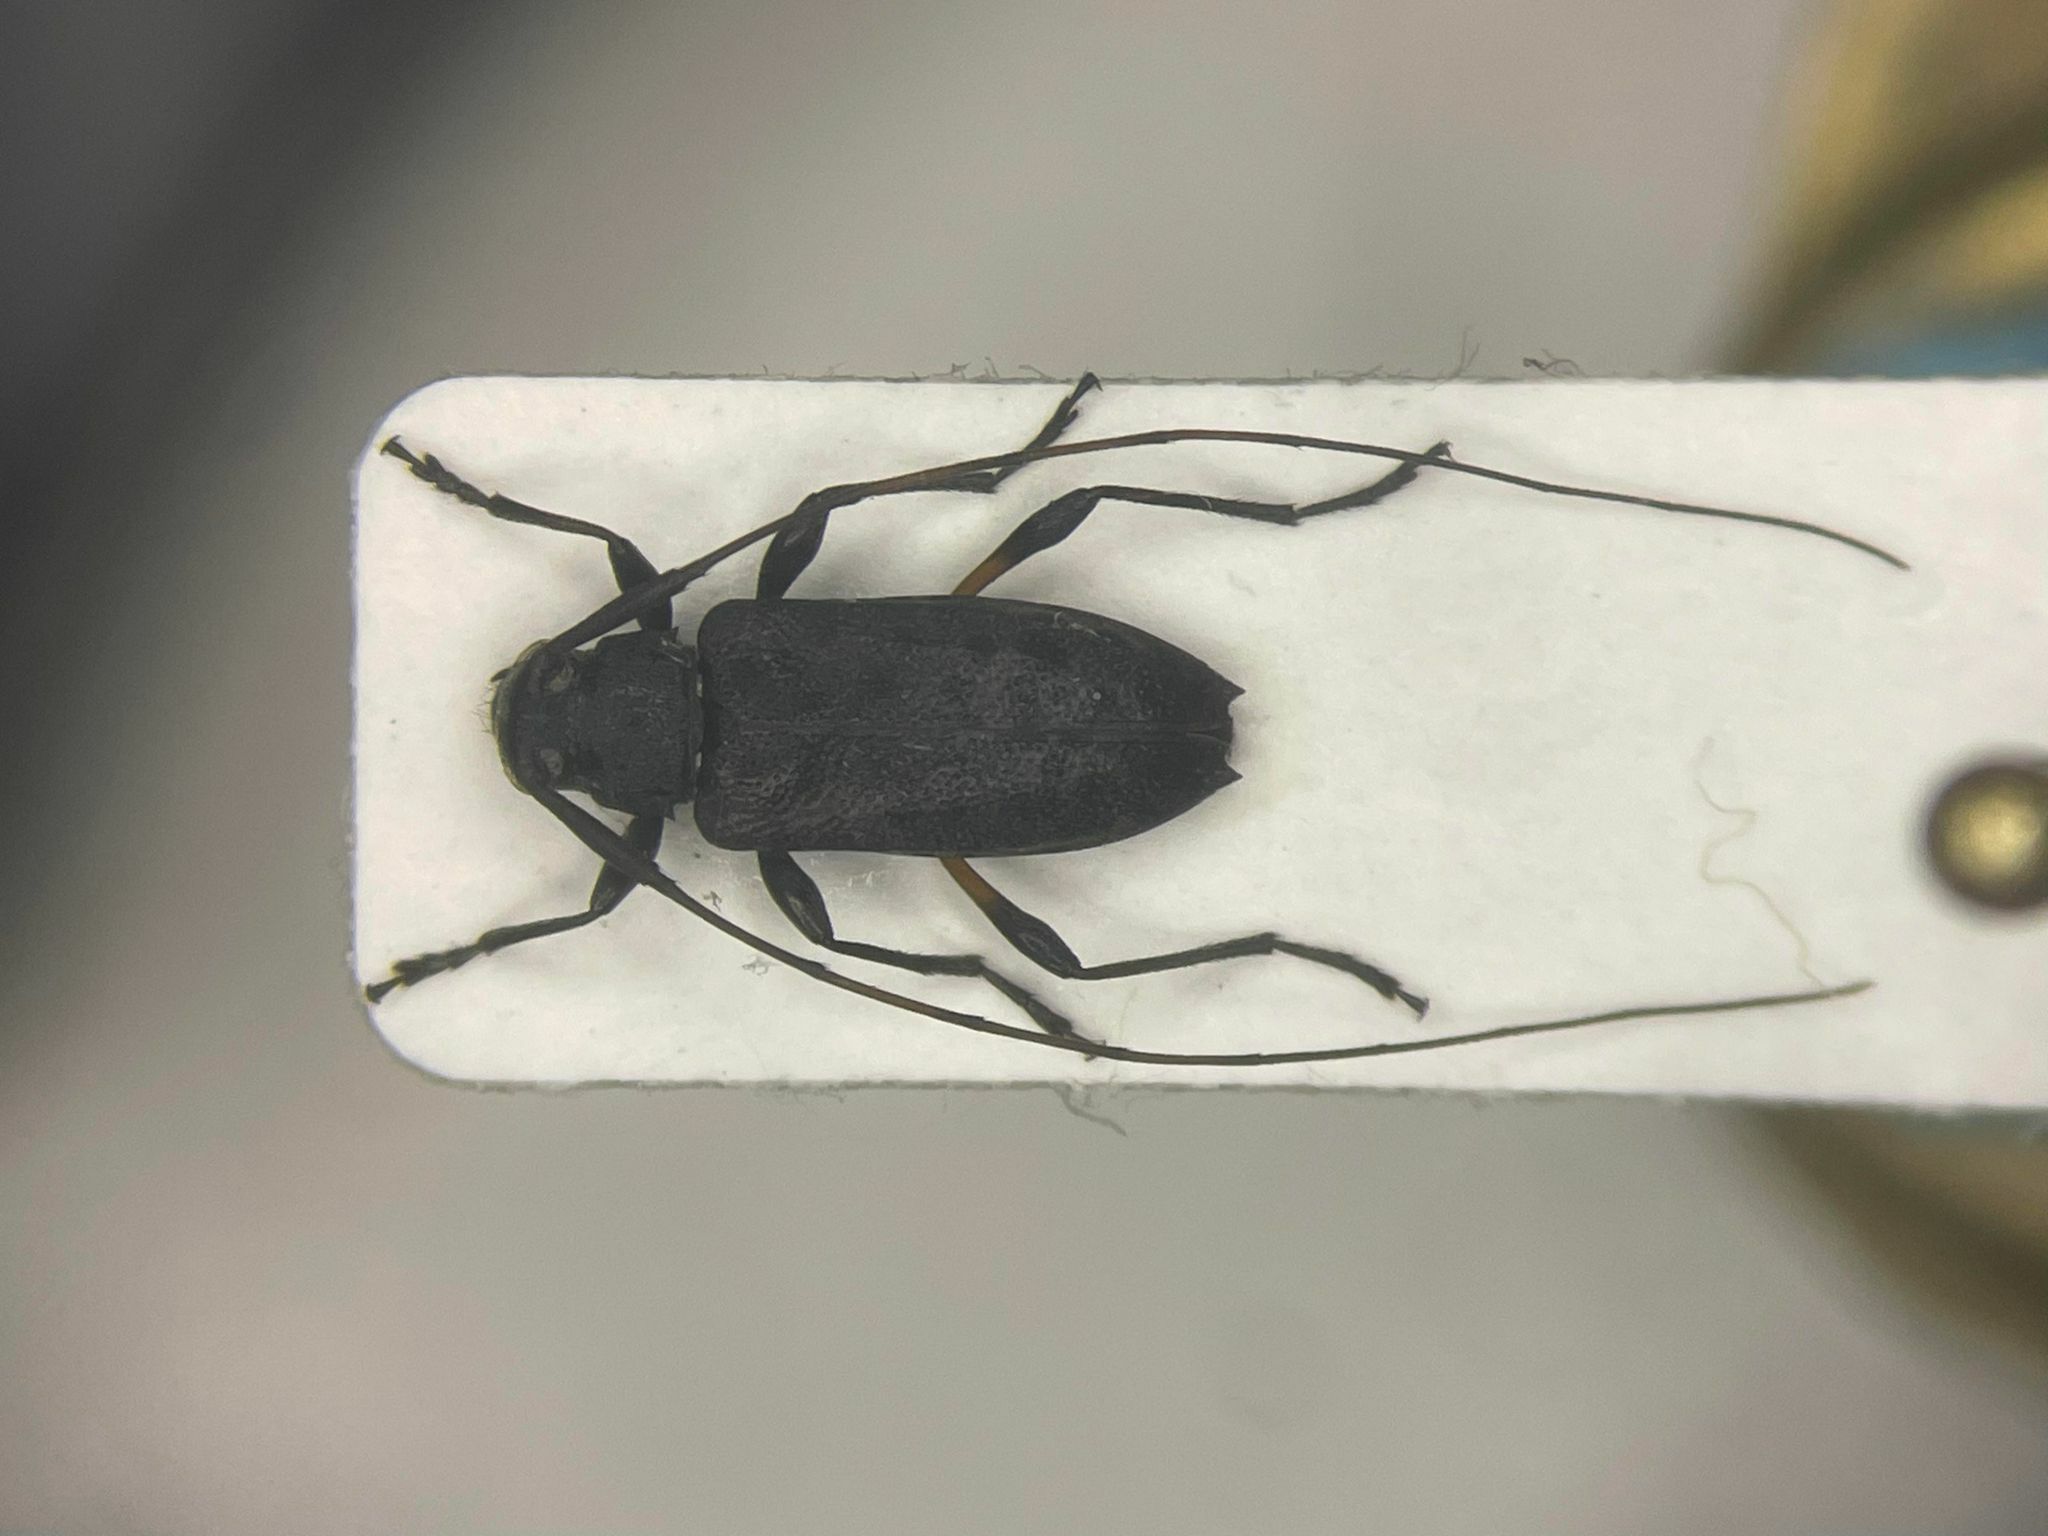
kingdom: Animalia
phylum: Arthropoda
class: Insecta
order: Coleoptera
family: Cerambycidae
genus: Hyperplatys
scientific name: Hyperplatys aspersa
